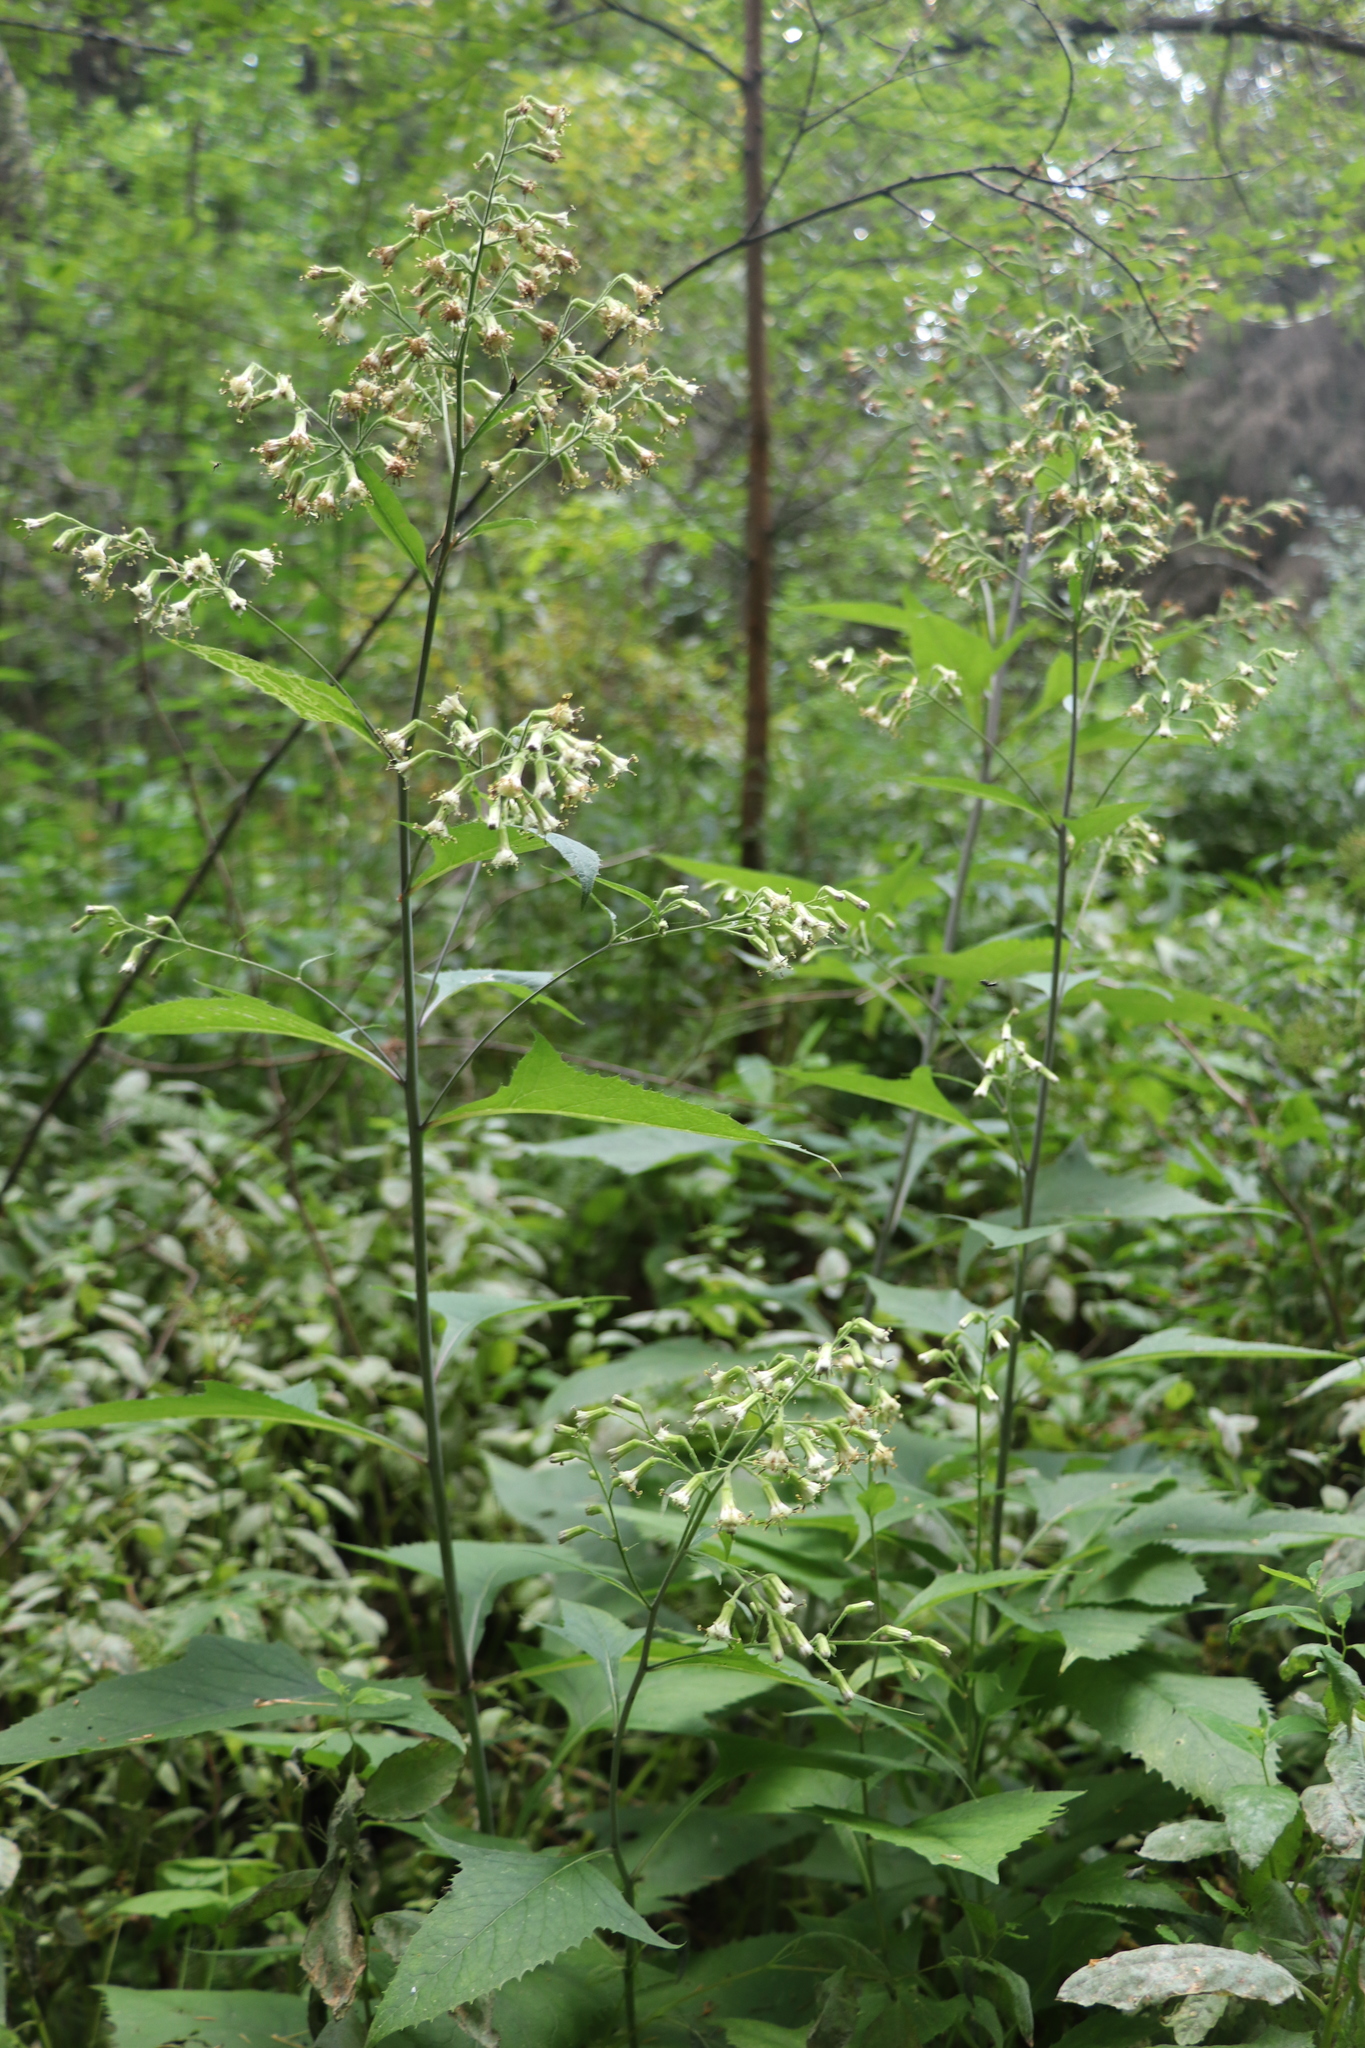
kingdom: Plantae
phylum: Tracheophyta
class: Magnoliopsida
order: Asterales
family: Asteraceae
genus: Parasenecio
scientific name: Parasenecio hastatus
